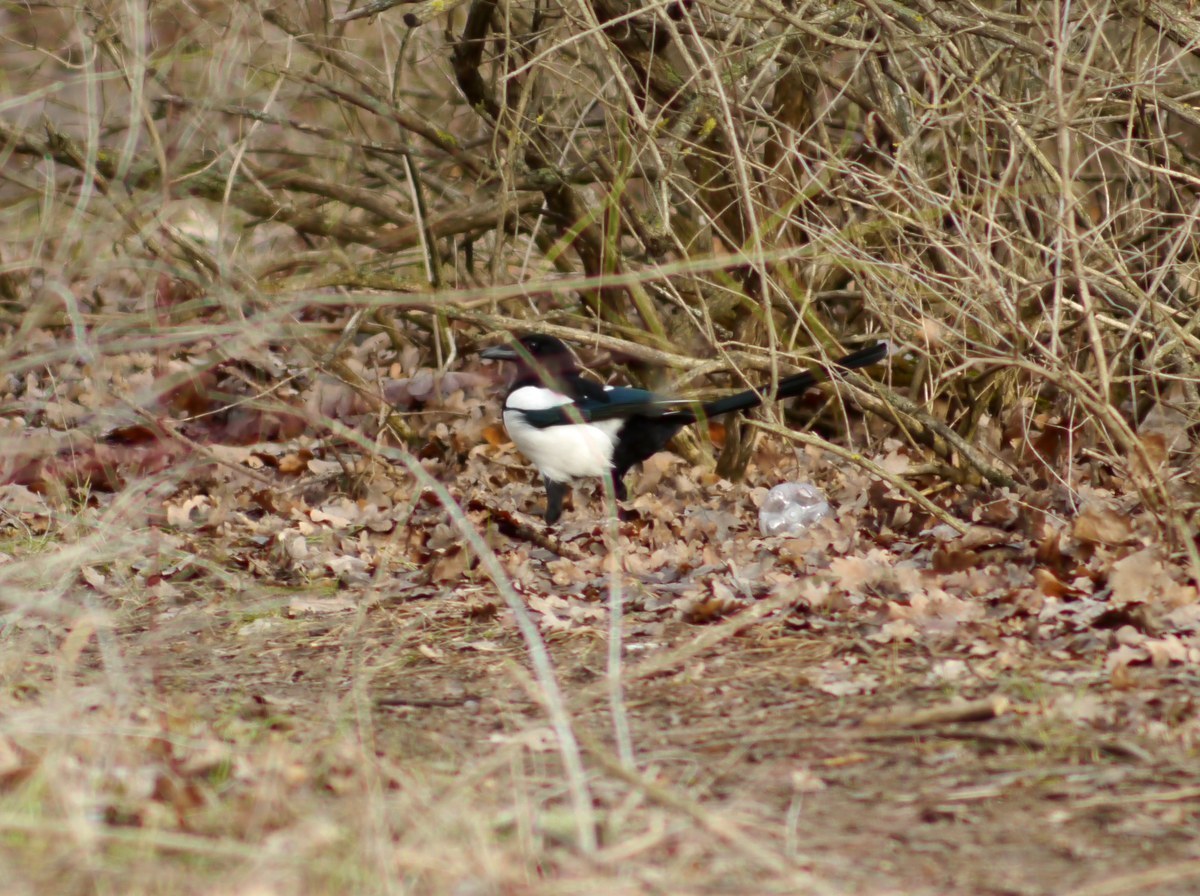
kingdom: Animalia
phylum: Chordata
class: Aves
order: Passeriformes
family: Corvidae
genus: Pica
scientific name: Pica pica
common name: Eurasian magpie
